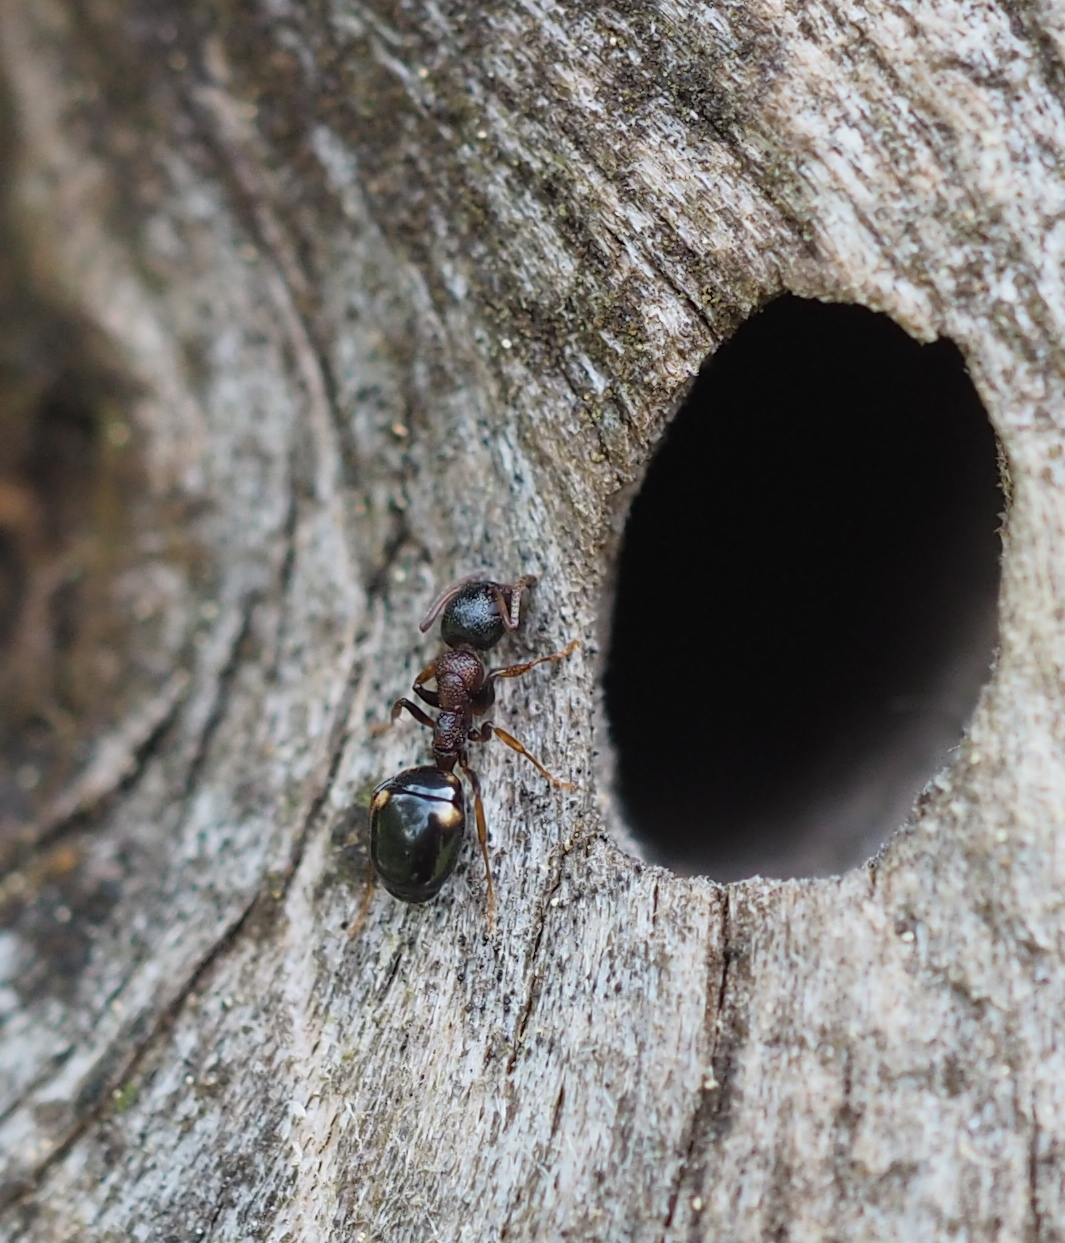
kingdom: Animalia
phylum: Arthropoda
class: Insecta
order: Hymenoptera
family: Formicidae
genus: Dolichoderus
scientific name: Dolichoderus quadripunctatus
